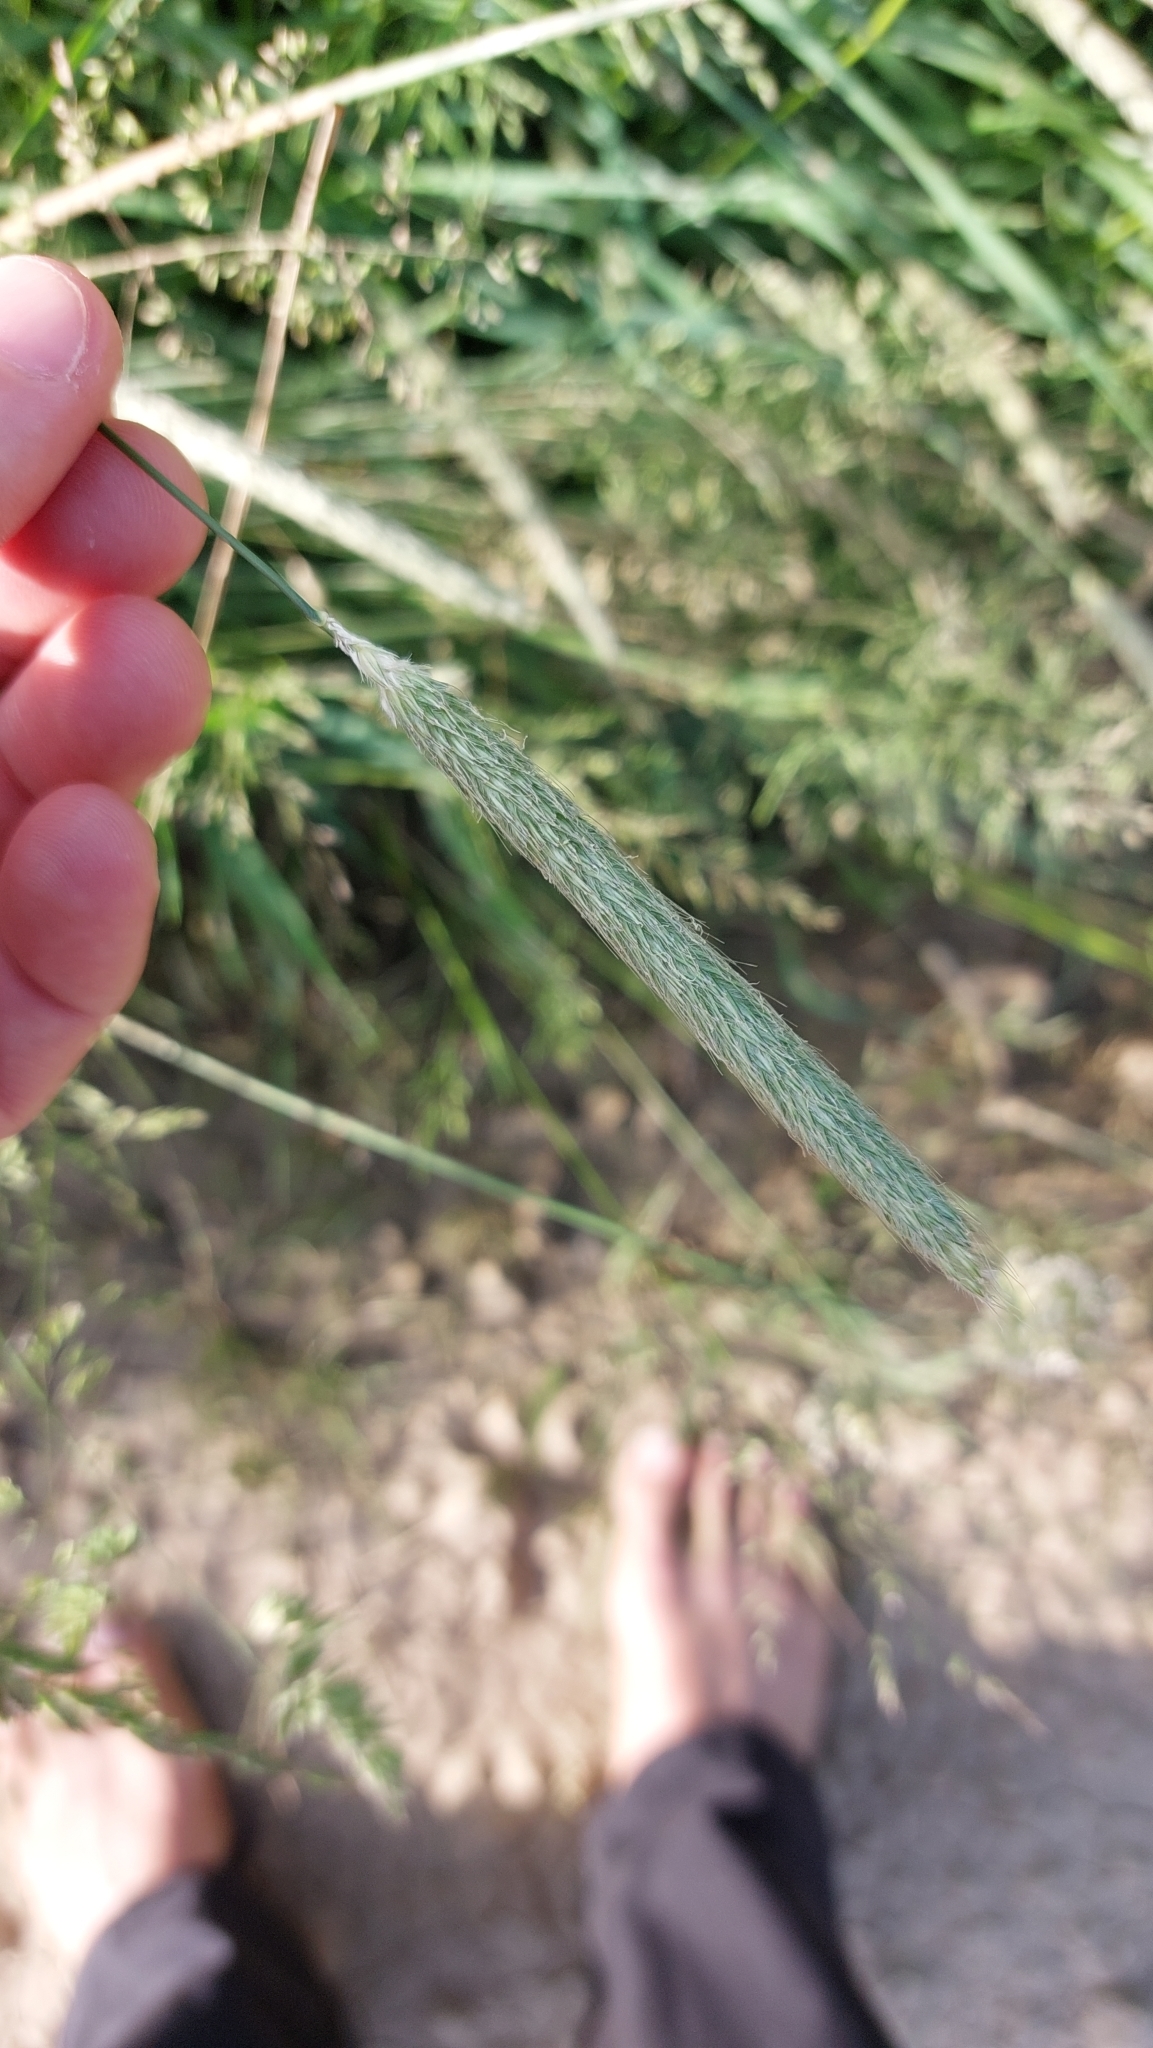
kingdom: Plantae
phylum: Tracheophyta
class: Liliopsida
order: Poales
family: Poaceae
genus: Alopecurus
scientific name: Alopecurus pratensis
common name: Meadow foxtail
